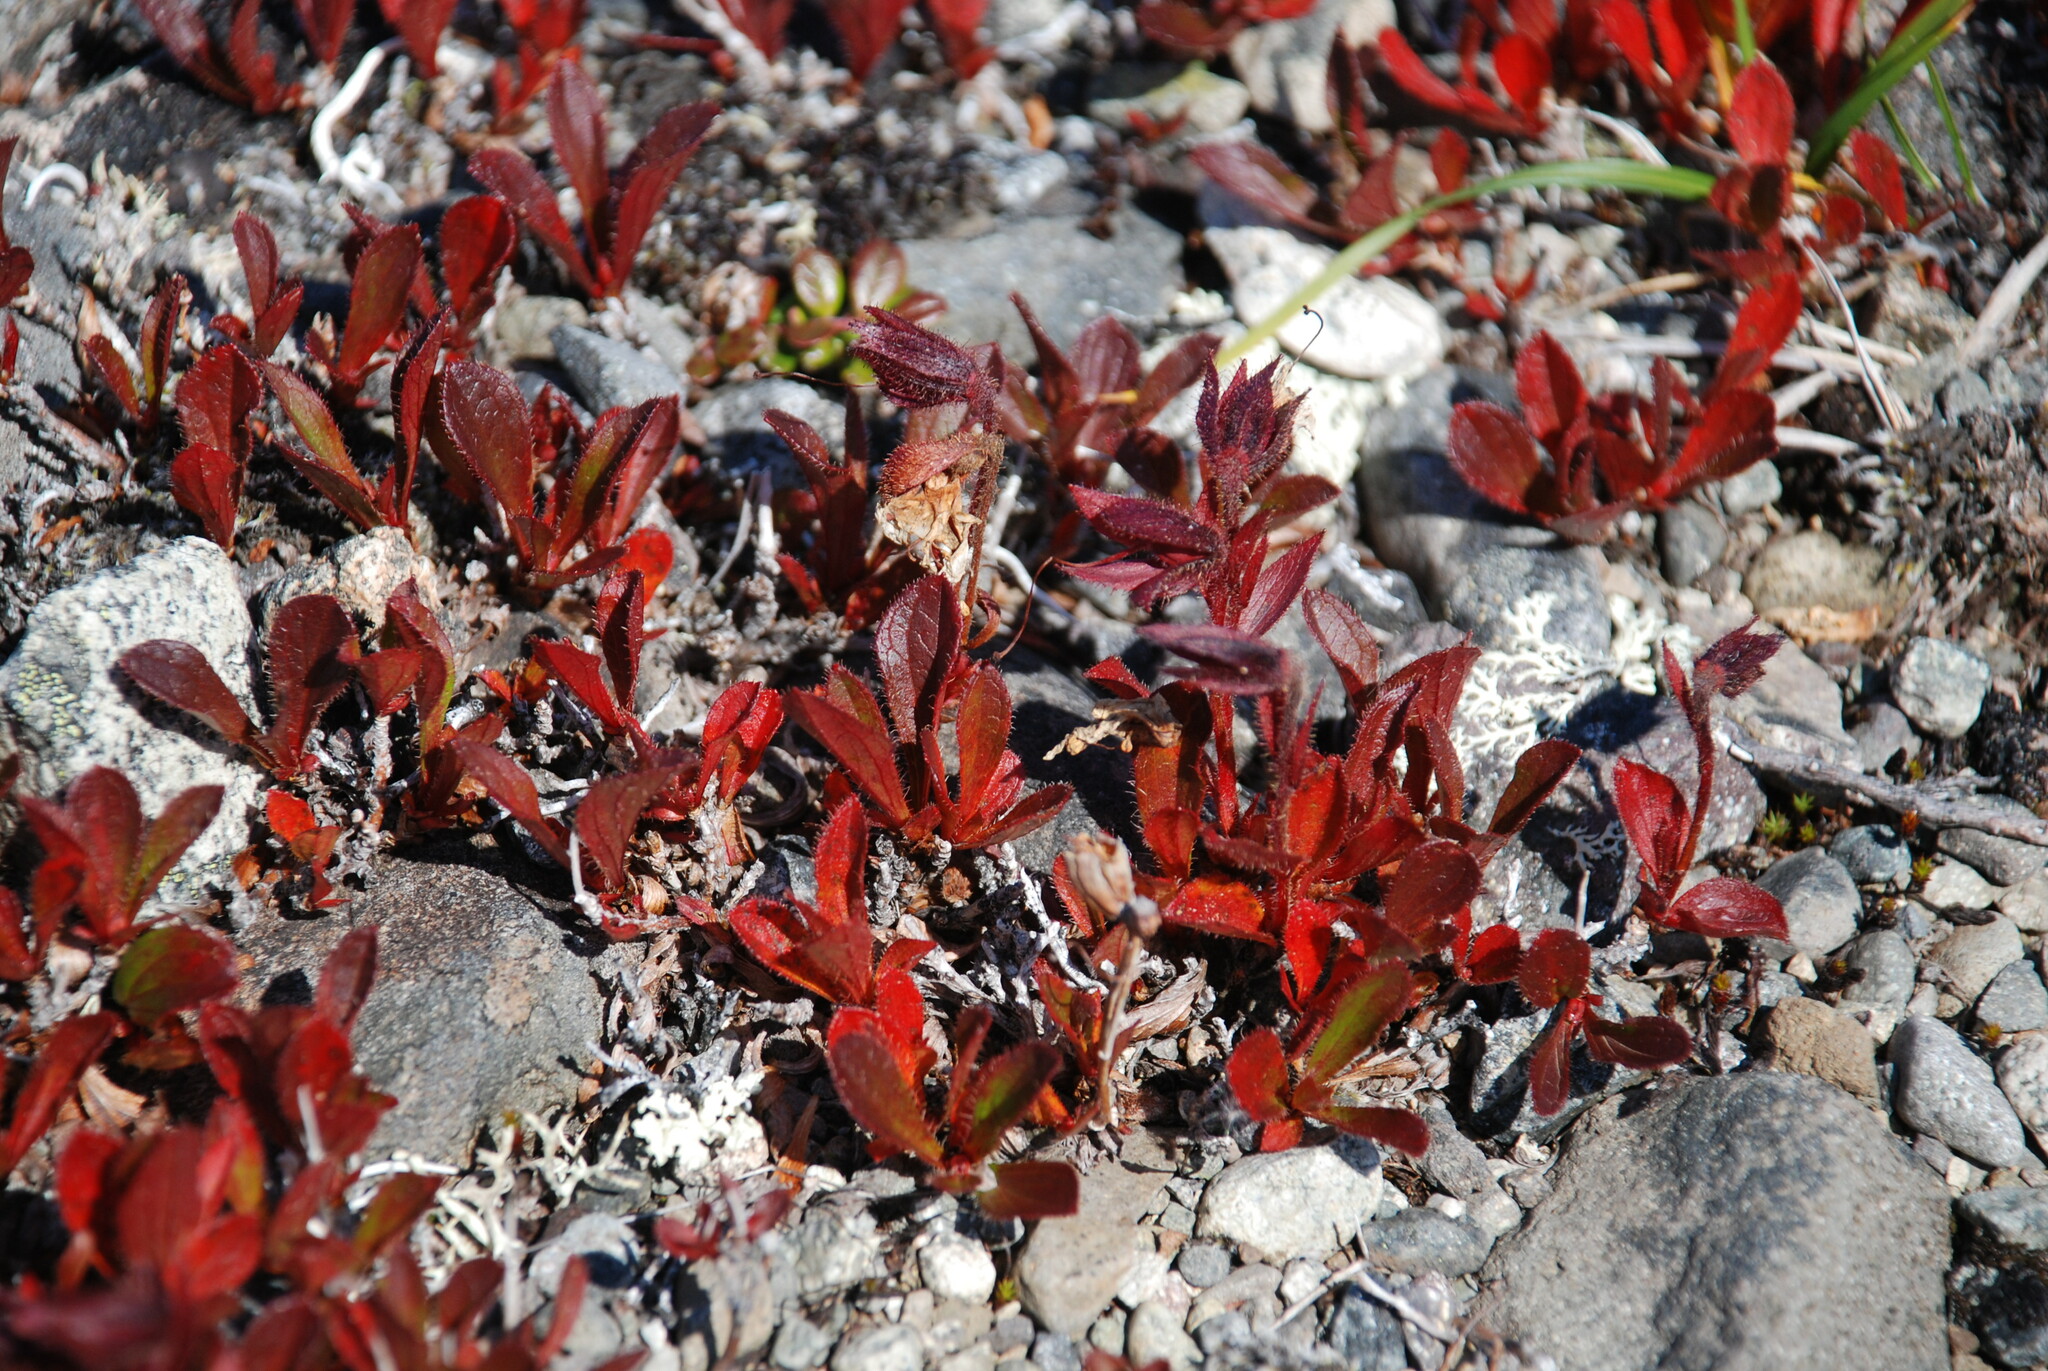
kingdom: Plantae
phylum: Tracheophyta
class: Magnoliopsida
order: Ericales
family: Ericaceae
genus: Rhododendron
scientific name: Rhododendron camtschaticum
